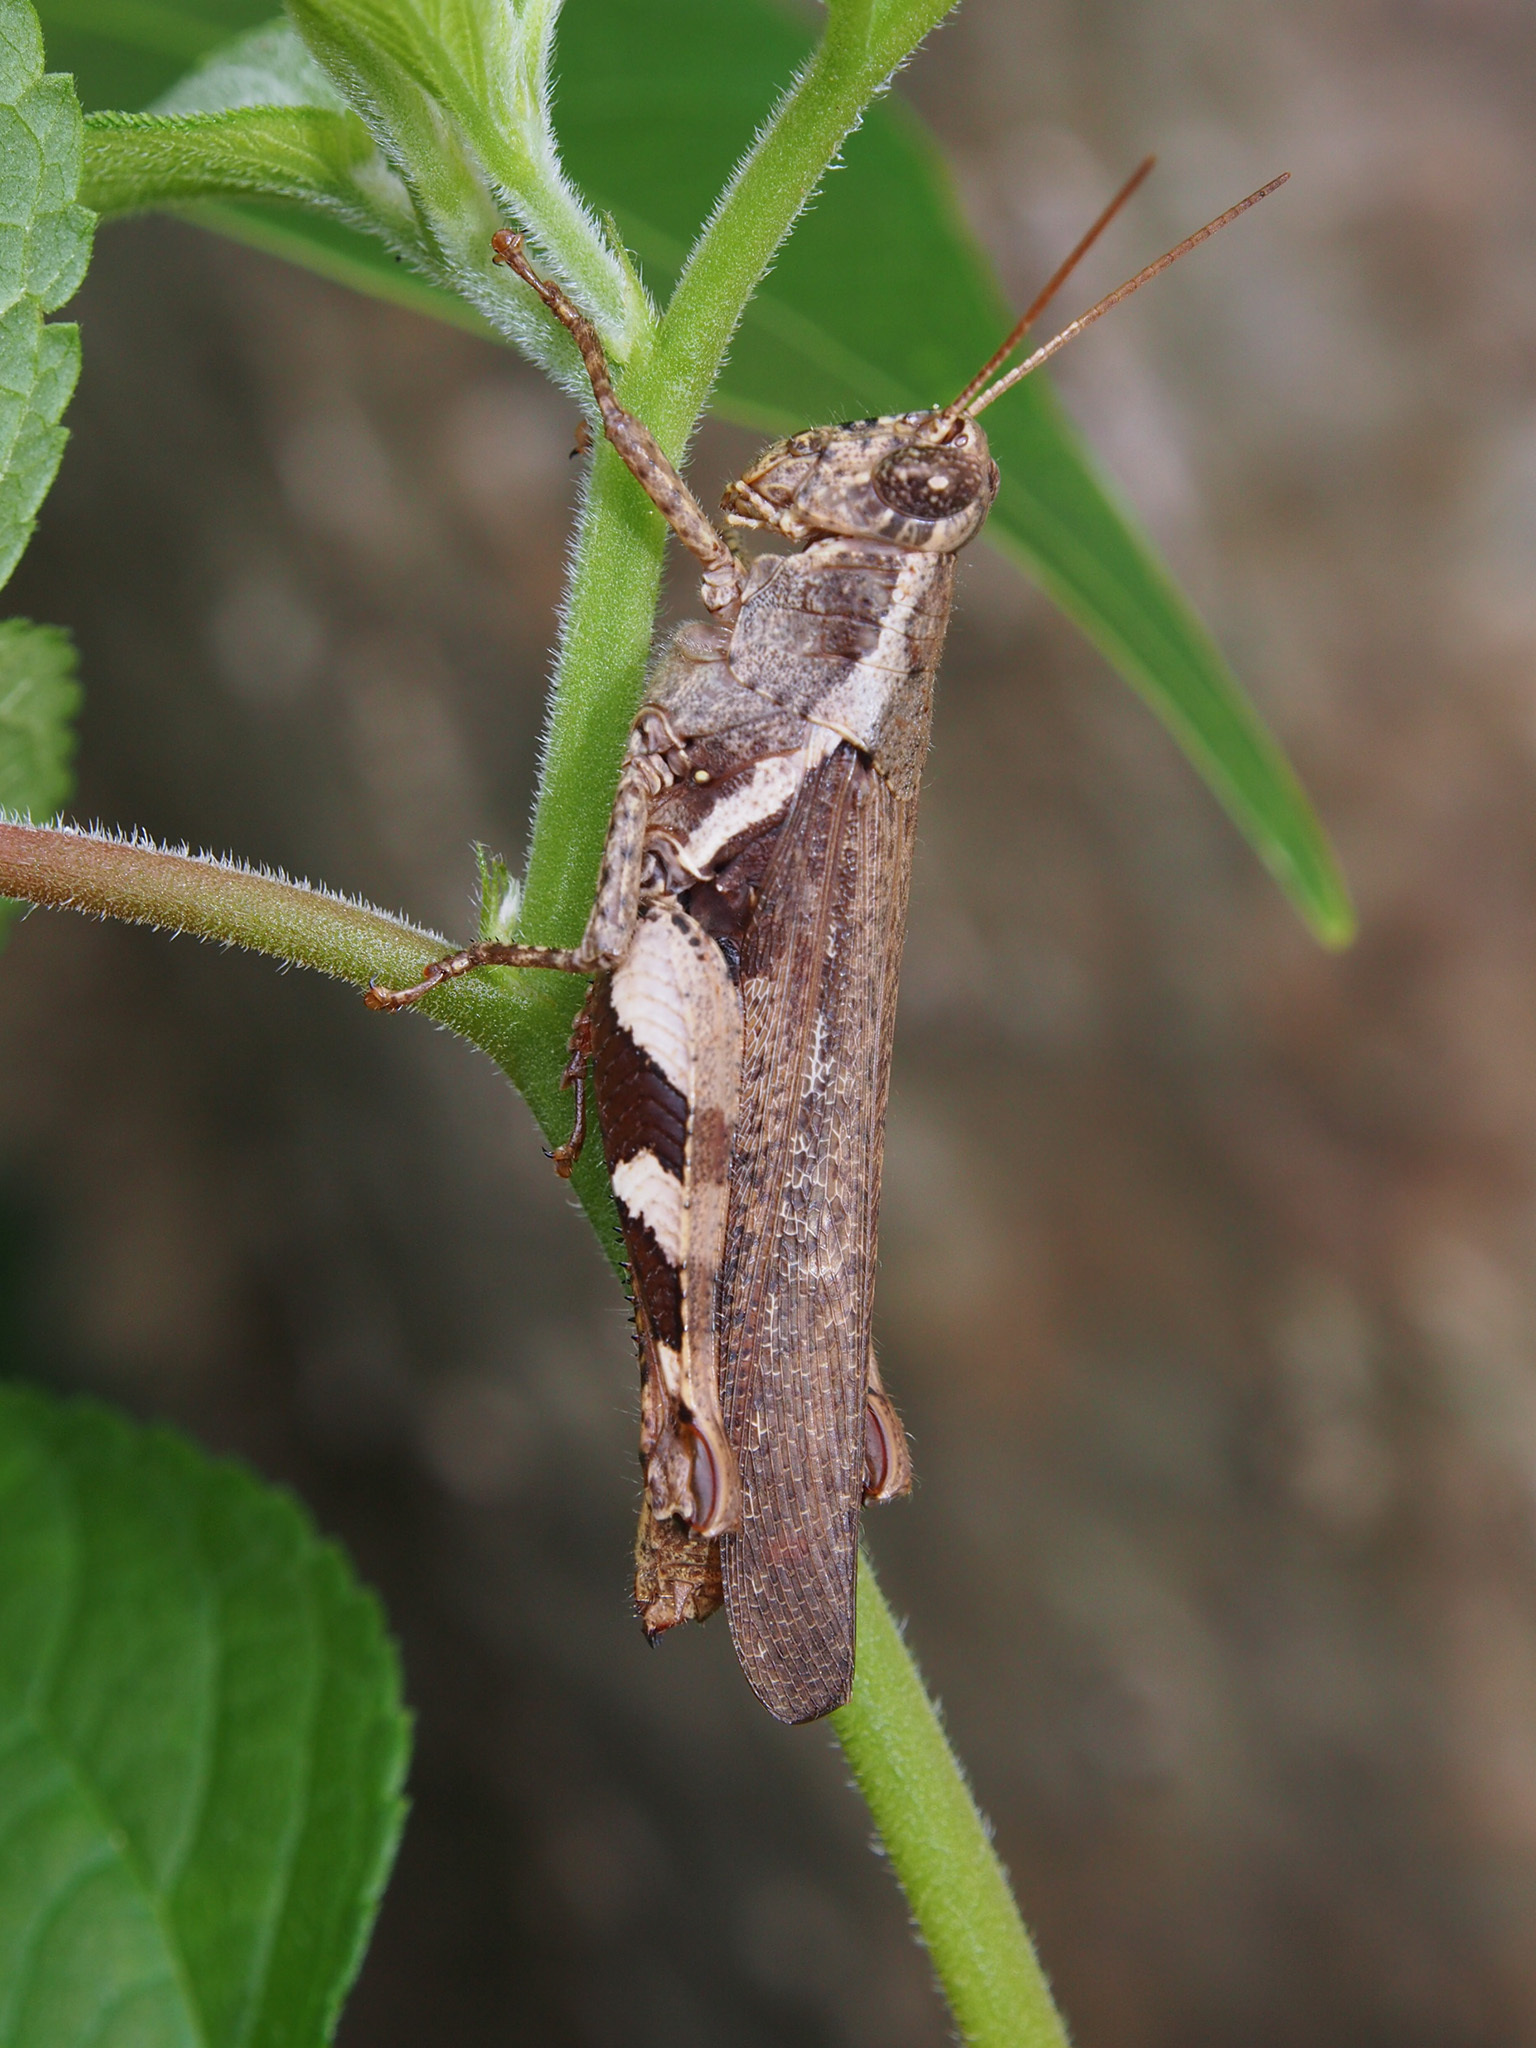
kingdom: Animalia
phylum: Arthropoda
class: Insecta
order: Orthoptera
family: Acrididae
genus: Xenocatantops
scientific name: Xenocatantops humile
